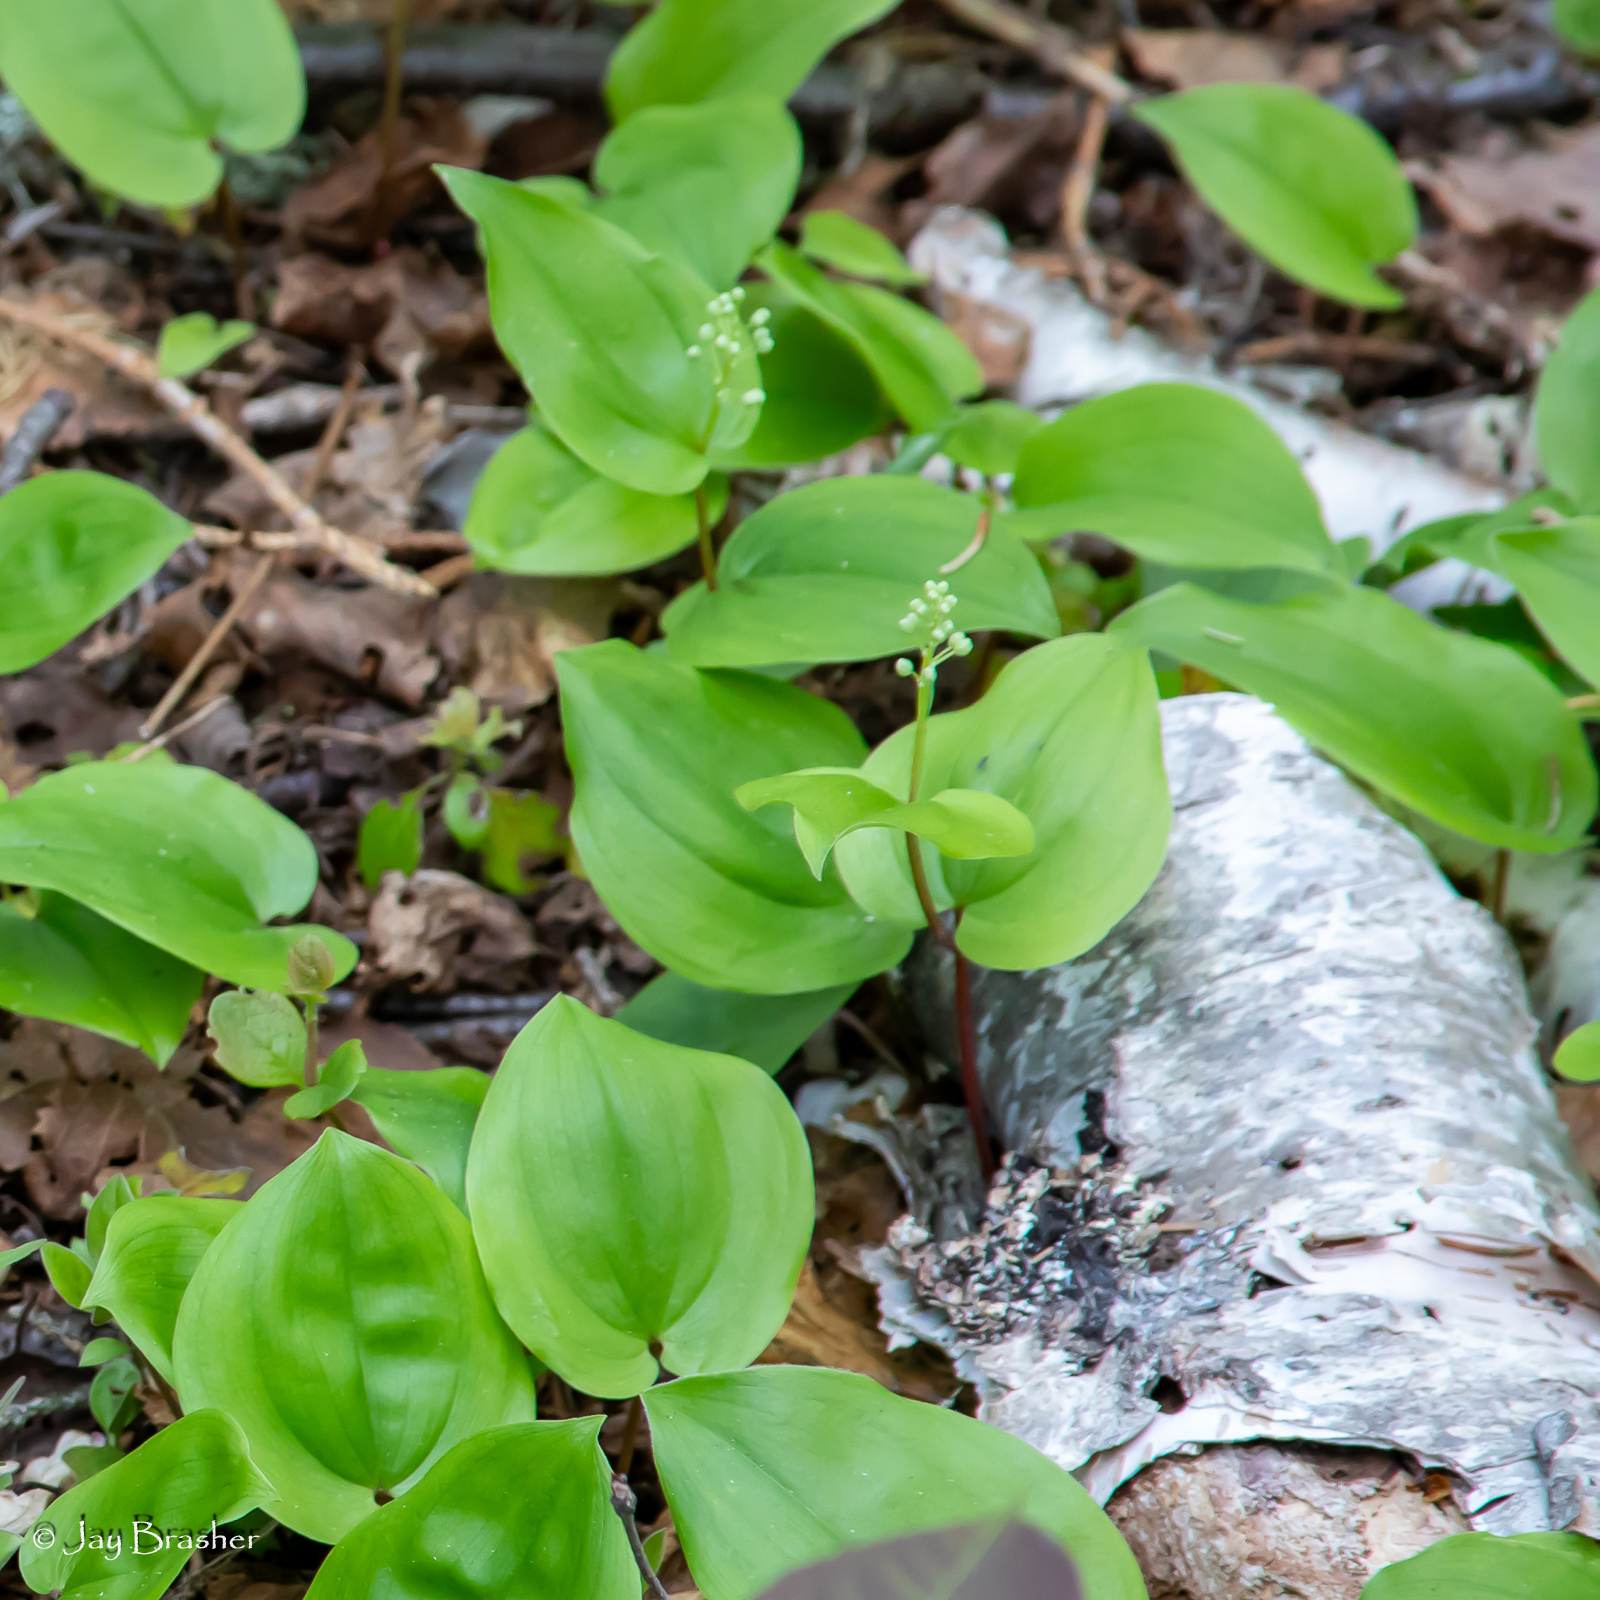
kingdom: Plantae
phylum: Tracheophyta
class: Liliopsida
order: Asparagales
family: Asparagaceae
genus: Maianthemum
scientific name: Maianthemum canadense
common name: False lily-of-the-valley
